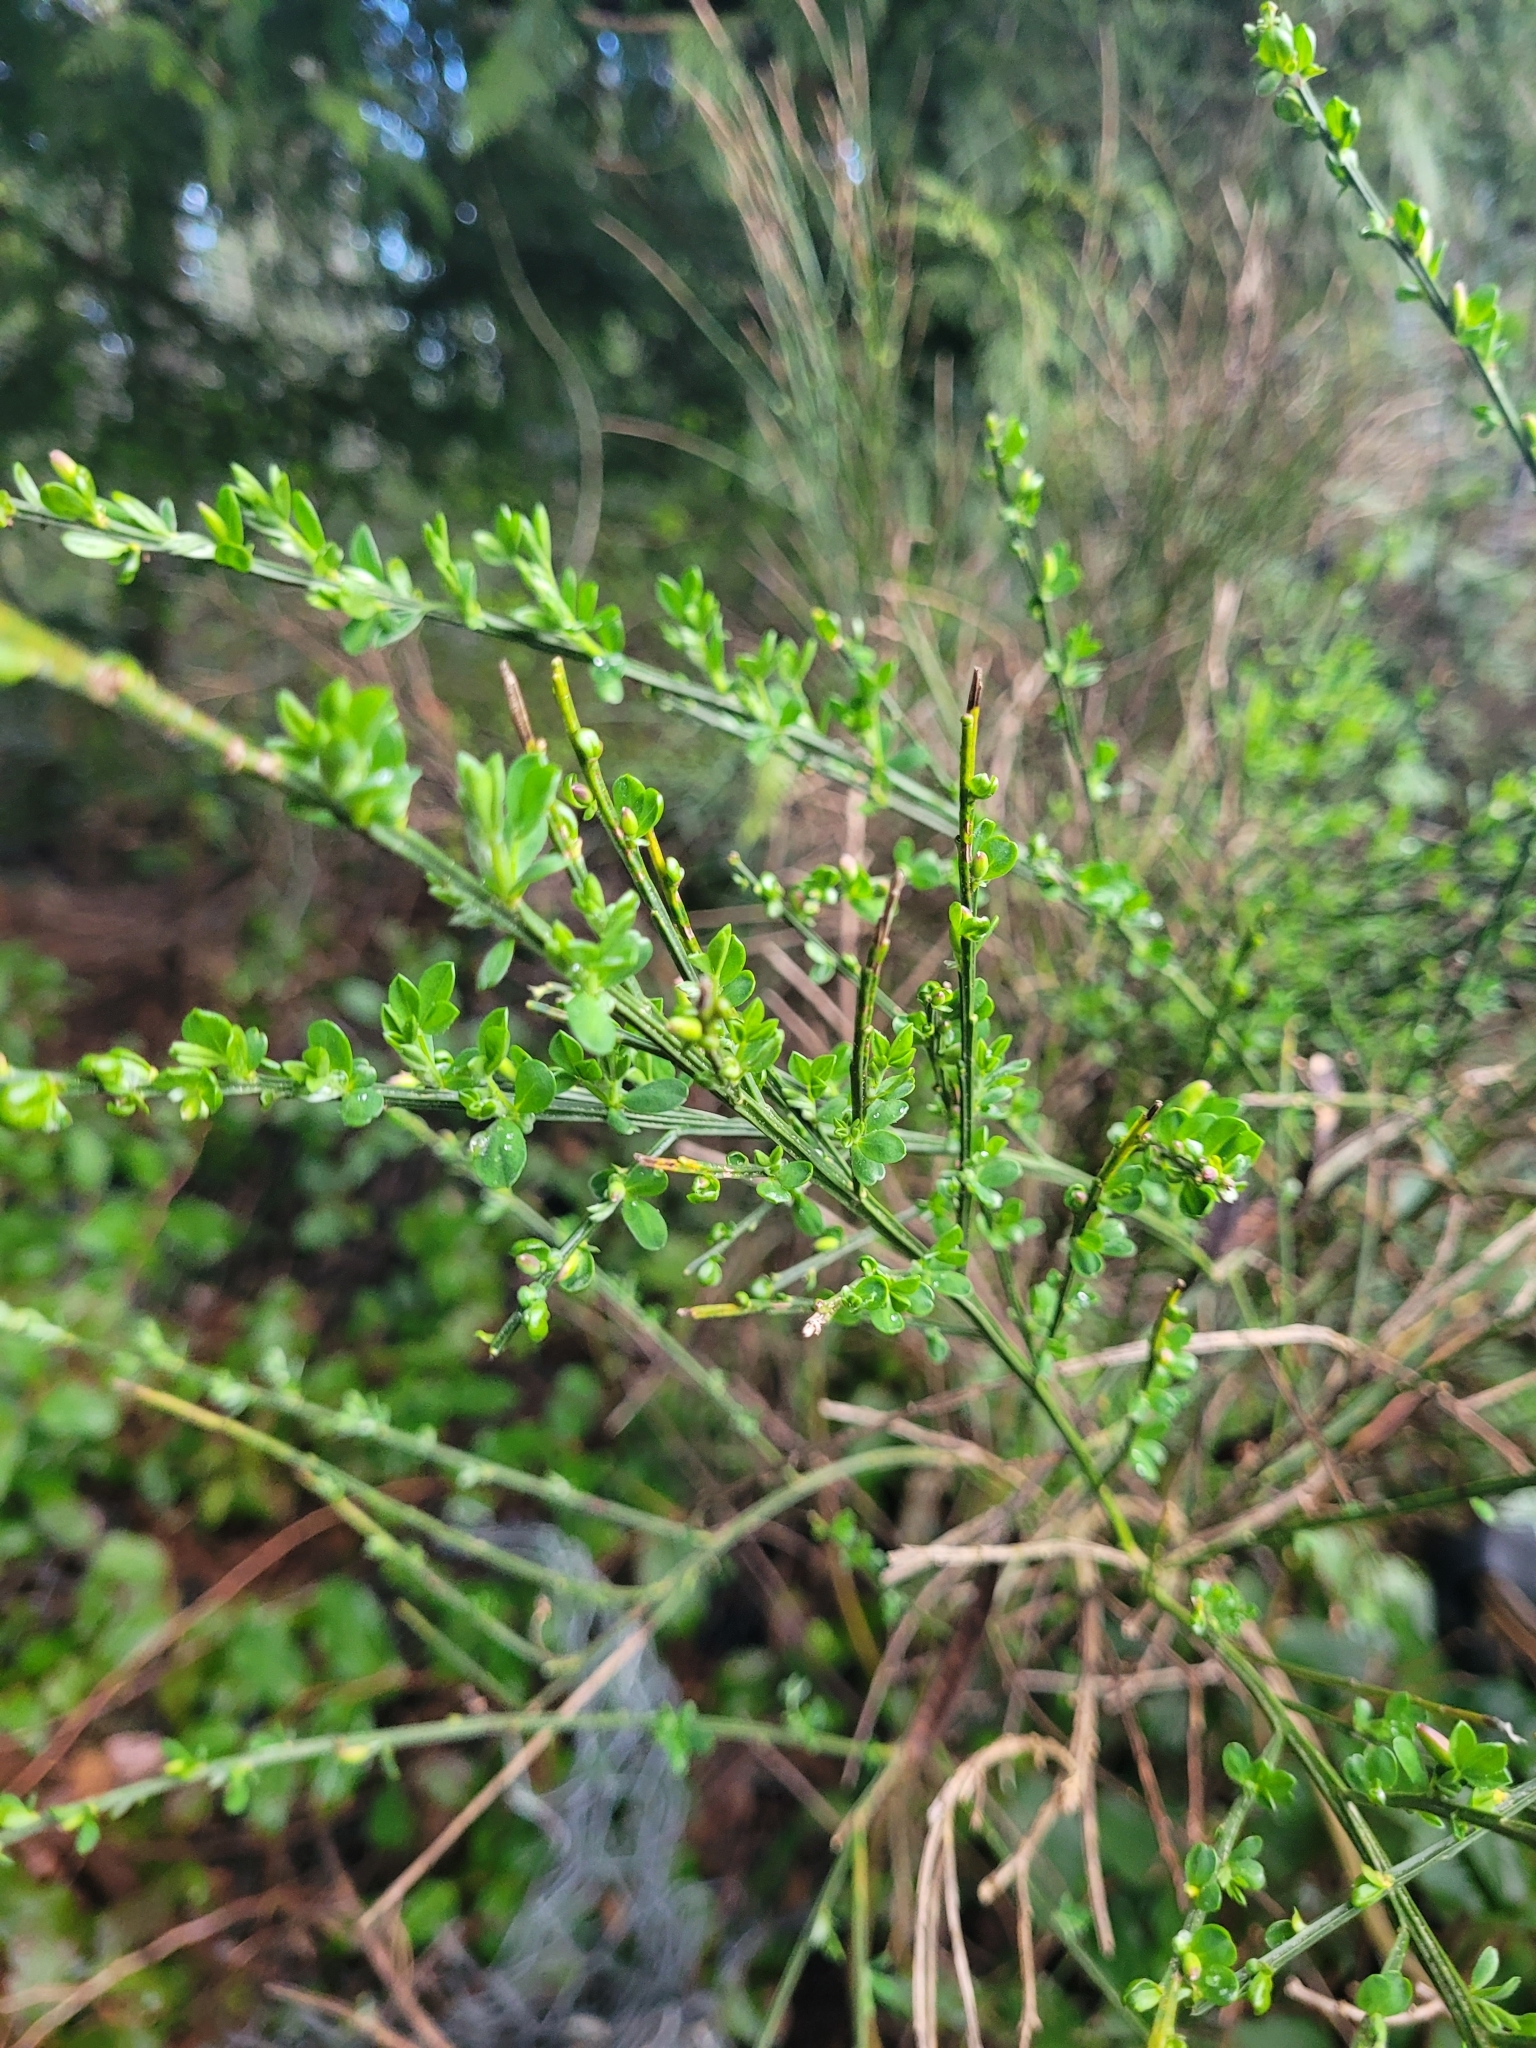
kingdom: Plantae
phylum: Tracheophyta
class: Magnoliopsida
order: Fabales
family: Fabaceae
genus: Cytisus
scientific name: Cytisus scoparius
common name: Scotch broom
